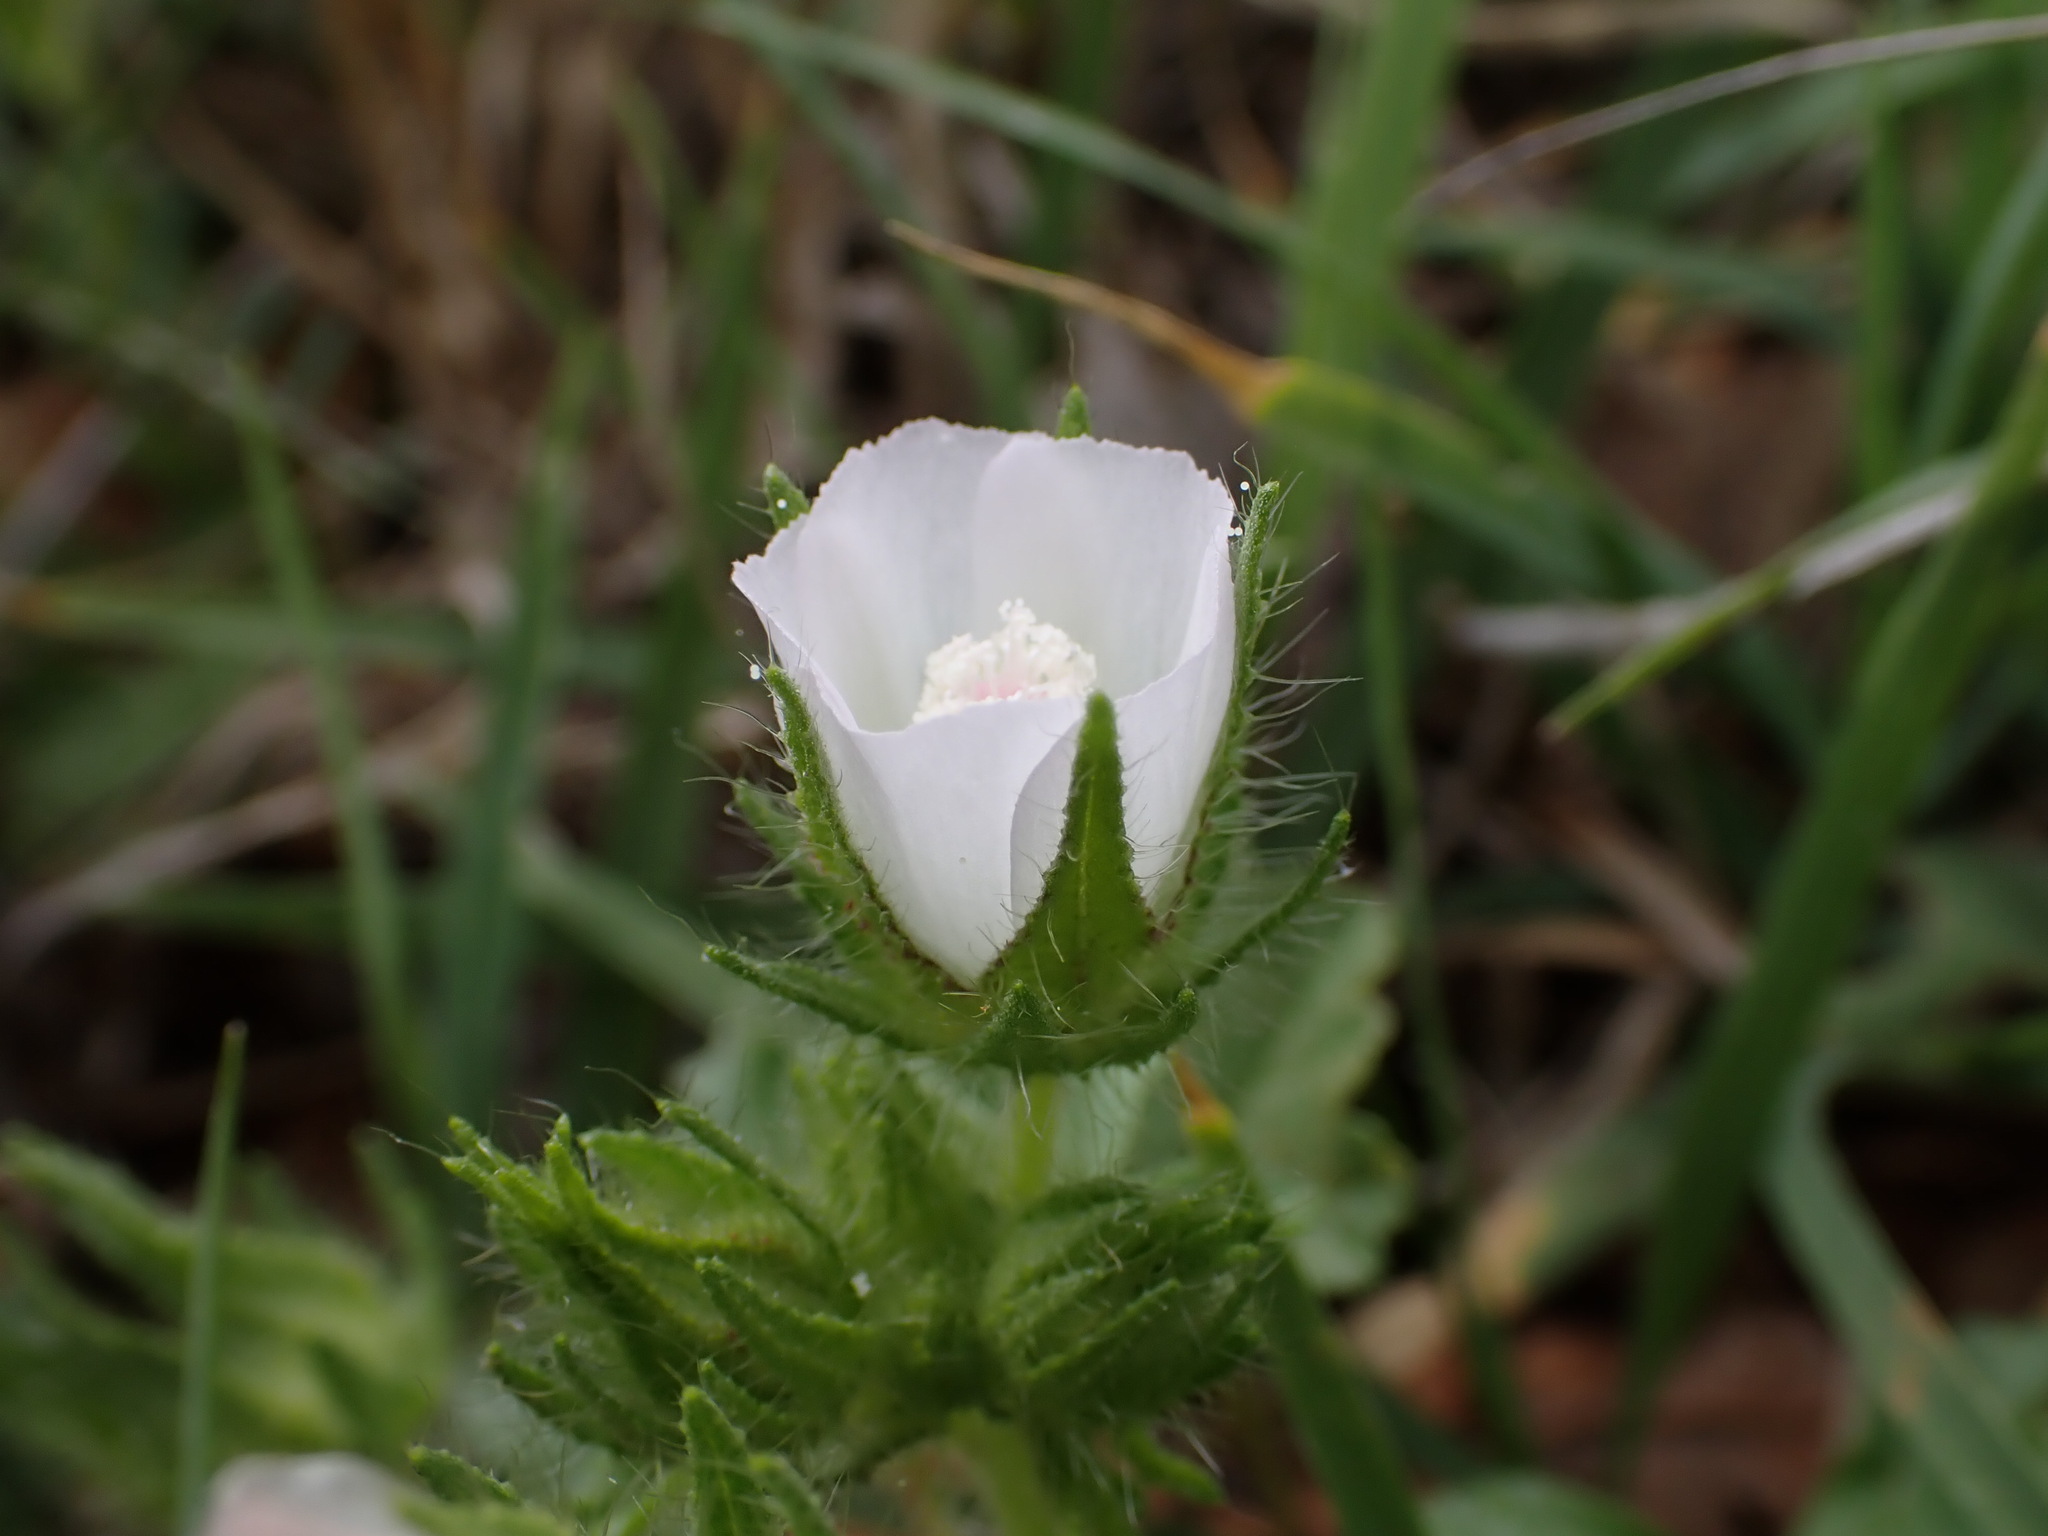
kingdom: Plantae
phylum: Tracheophyta
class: Magnoliopsida
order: Malvales
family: Malvaceae
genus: Althaea
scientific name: Althaea hirsuta
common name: Rough marsh-mallow
